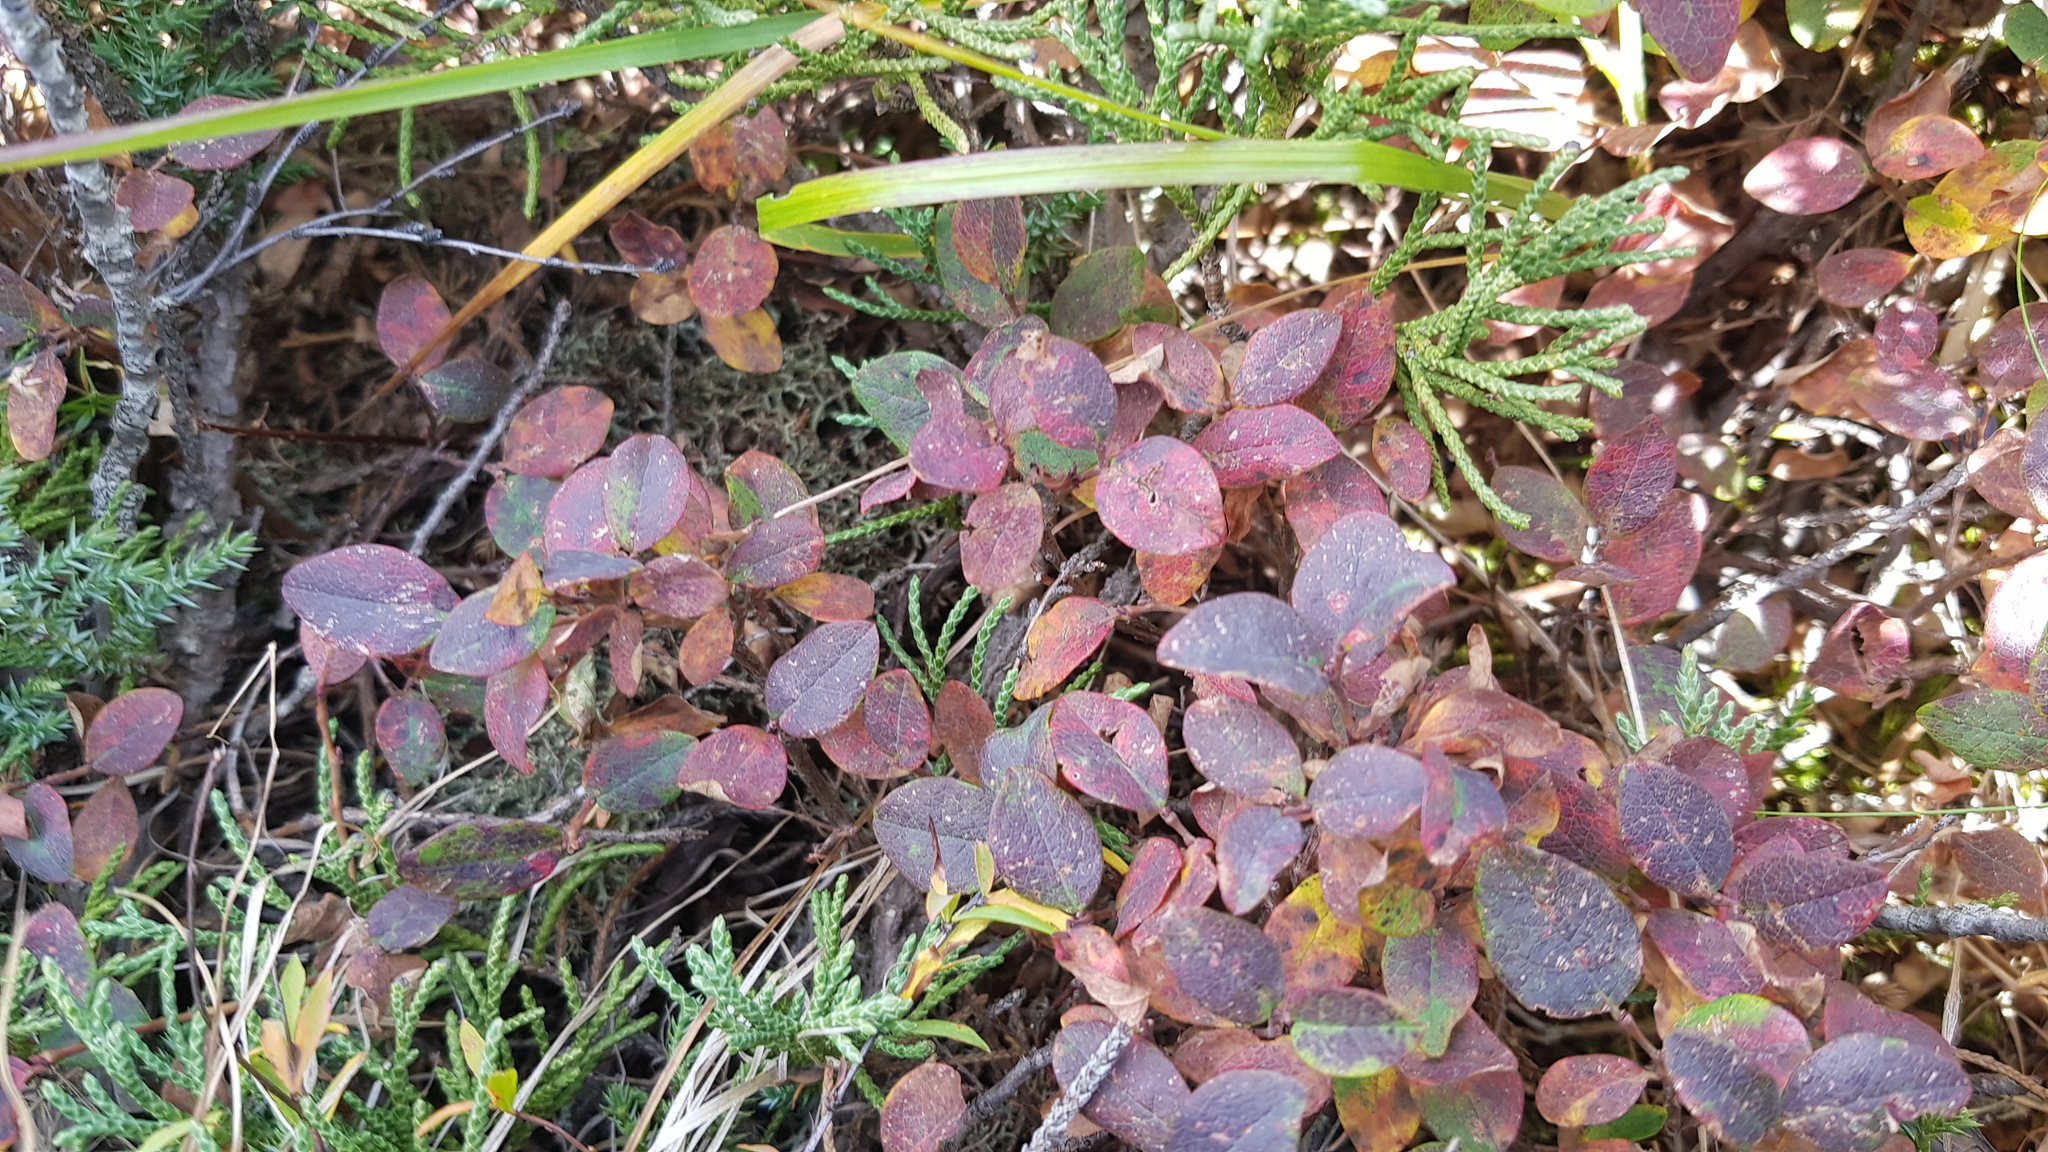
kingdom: Plantae
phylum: Tracheophyta
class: Magnoliopsida
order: Ericales
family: Ericaceae
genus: Vaccinium
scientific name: Vaccinium uliginosum
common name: Bog bilberry
